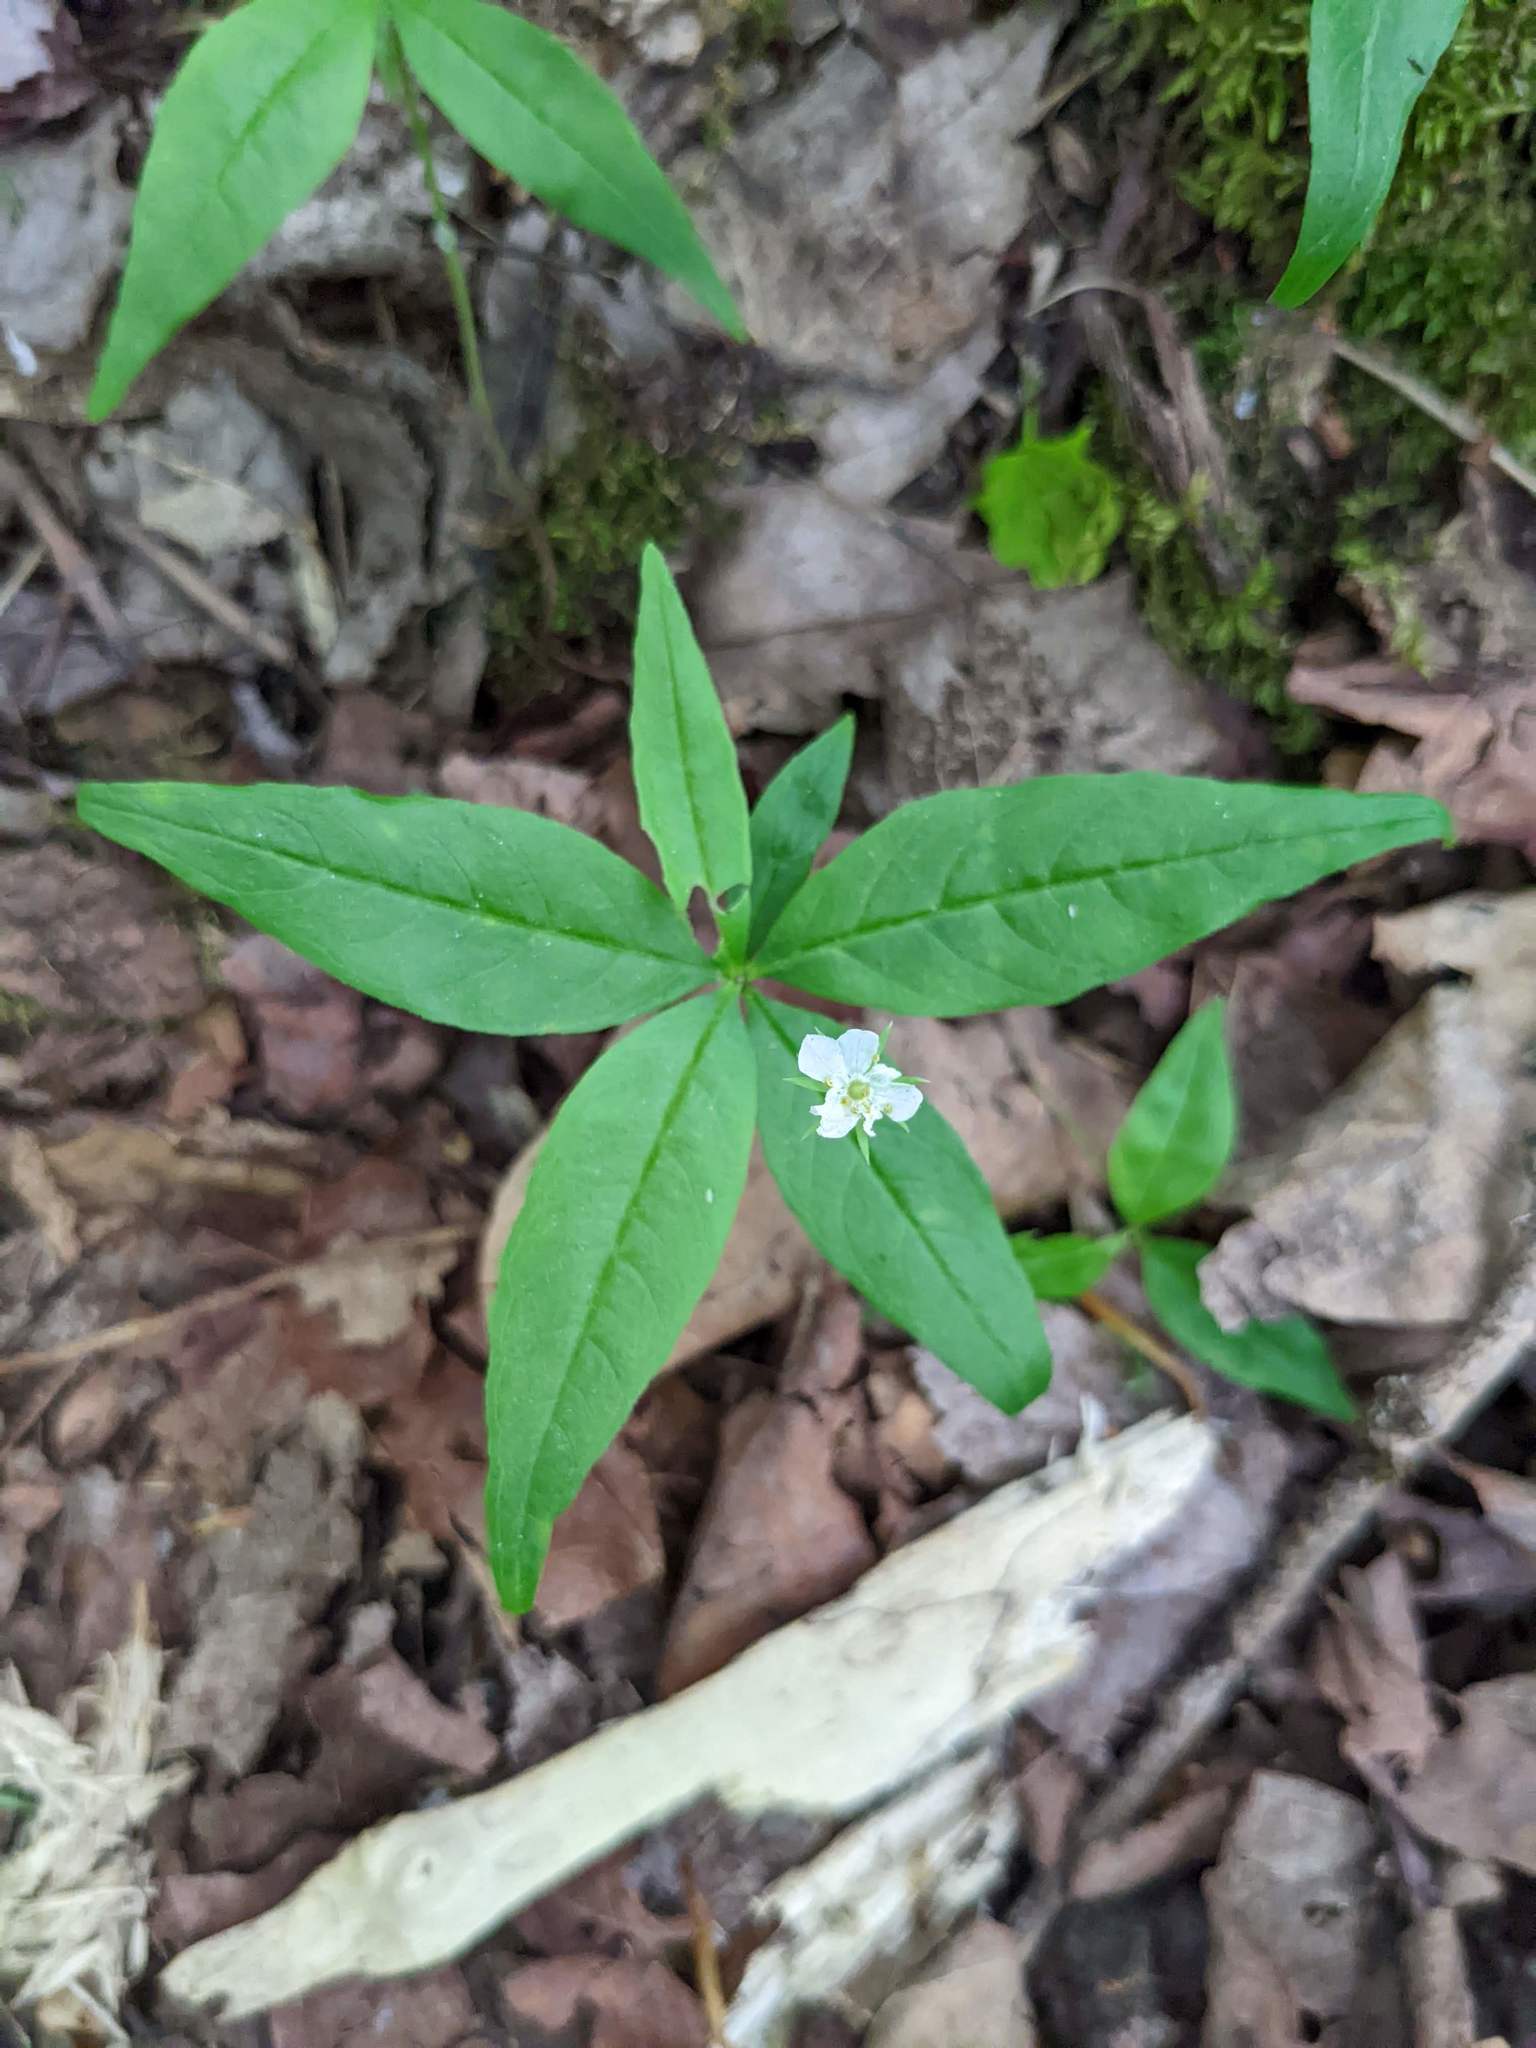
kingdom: Plantae
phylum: Tracheophyta
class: Magnoliopsida
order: Ericales
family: Primulaceae
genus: Lysimachia
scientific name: Lysimachia borealis
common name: American starflower
